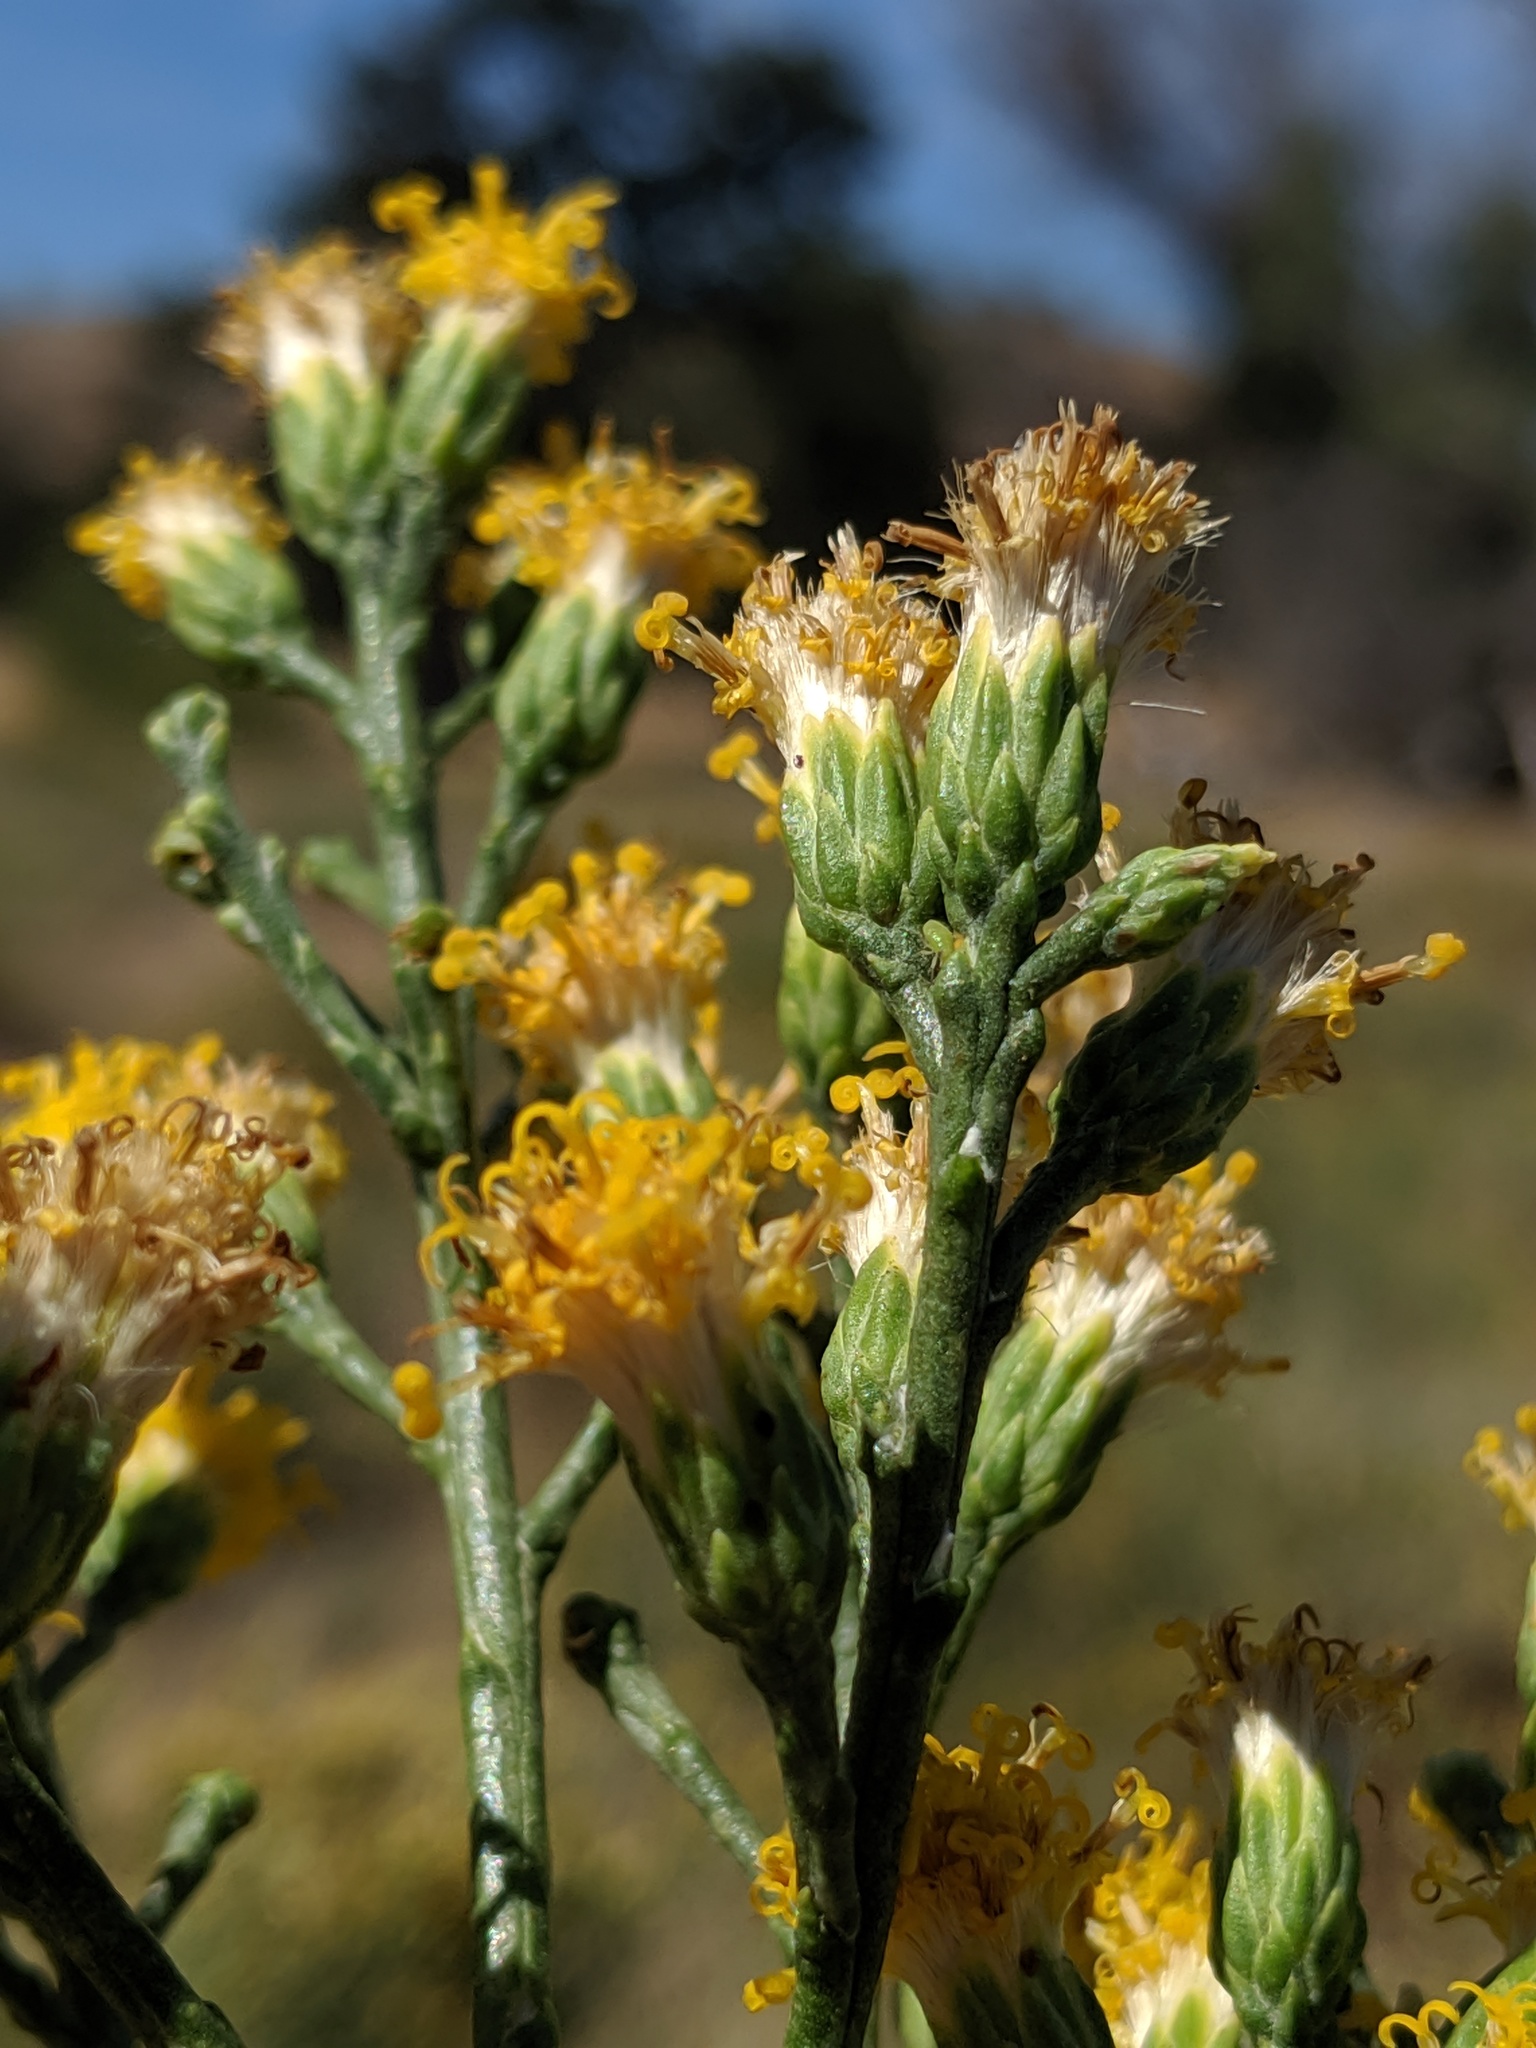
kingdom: Plantae
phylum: Tracheophyta
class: Magnoliopsida
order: Asterales
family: Asteraceae
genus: Lepidospartum
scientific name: Lepidospartum squamatum
